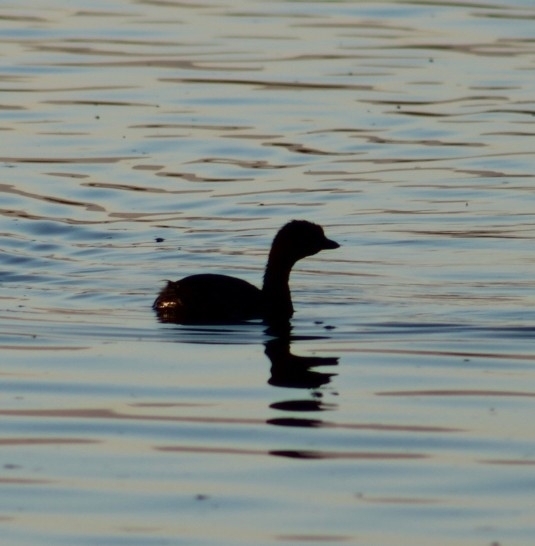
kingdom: Animalia
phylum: Chordata
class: Aves
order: Podicipediformes
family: Podicipedidae
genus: Podilymbus
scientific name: Podilymbus podiceps
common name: Pied-billed grebe
